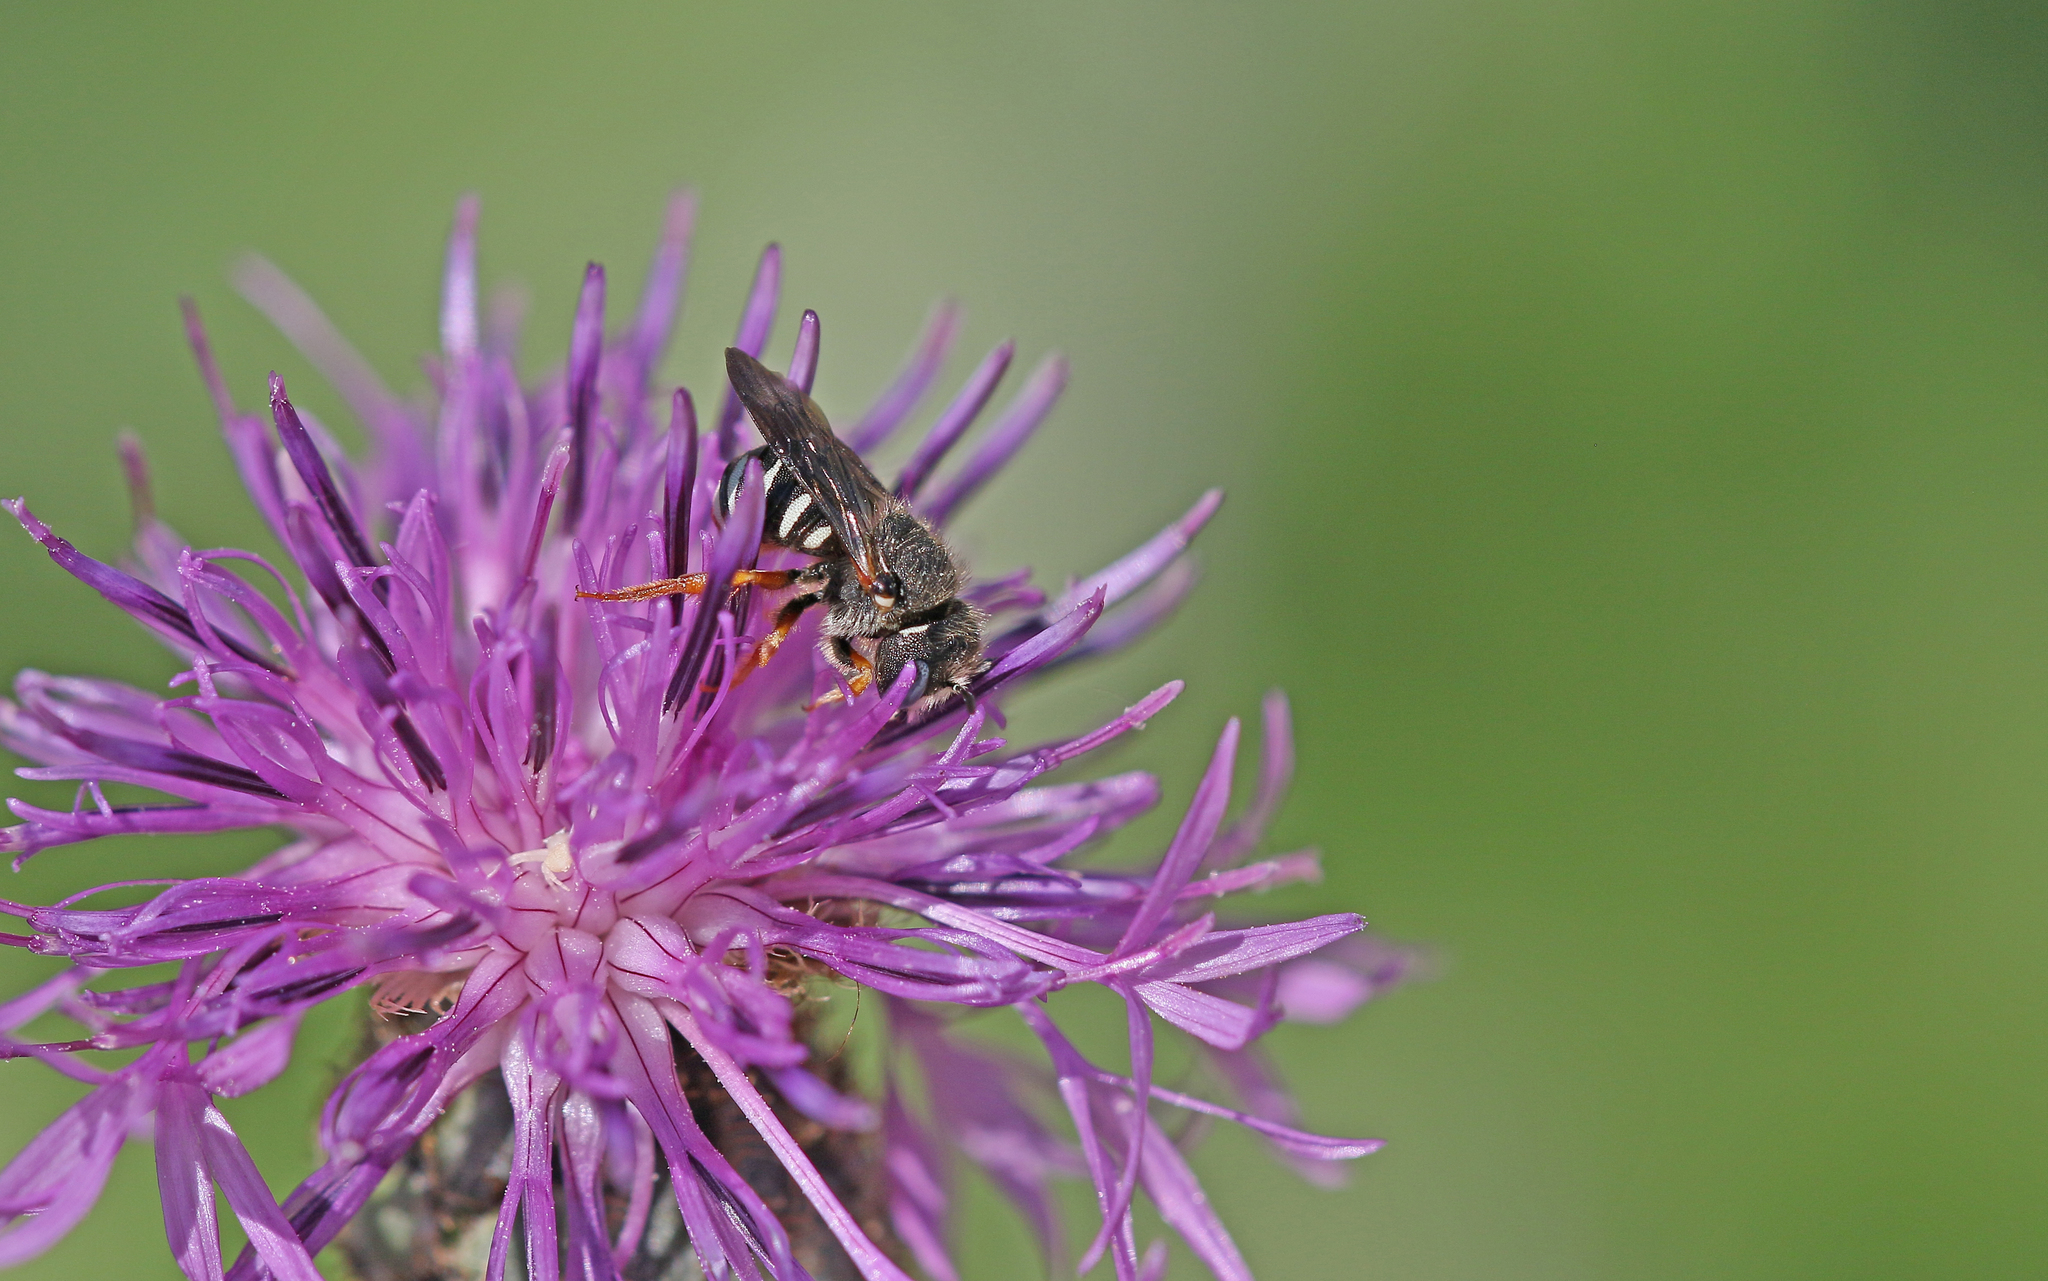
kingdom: Animalia
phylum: Arthropoda
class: Insecta
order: Hymenoptera
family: Megachilidae
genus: Pseudoanthidium
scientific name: Pseudoanthidium tenellum
